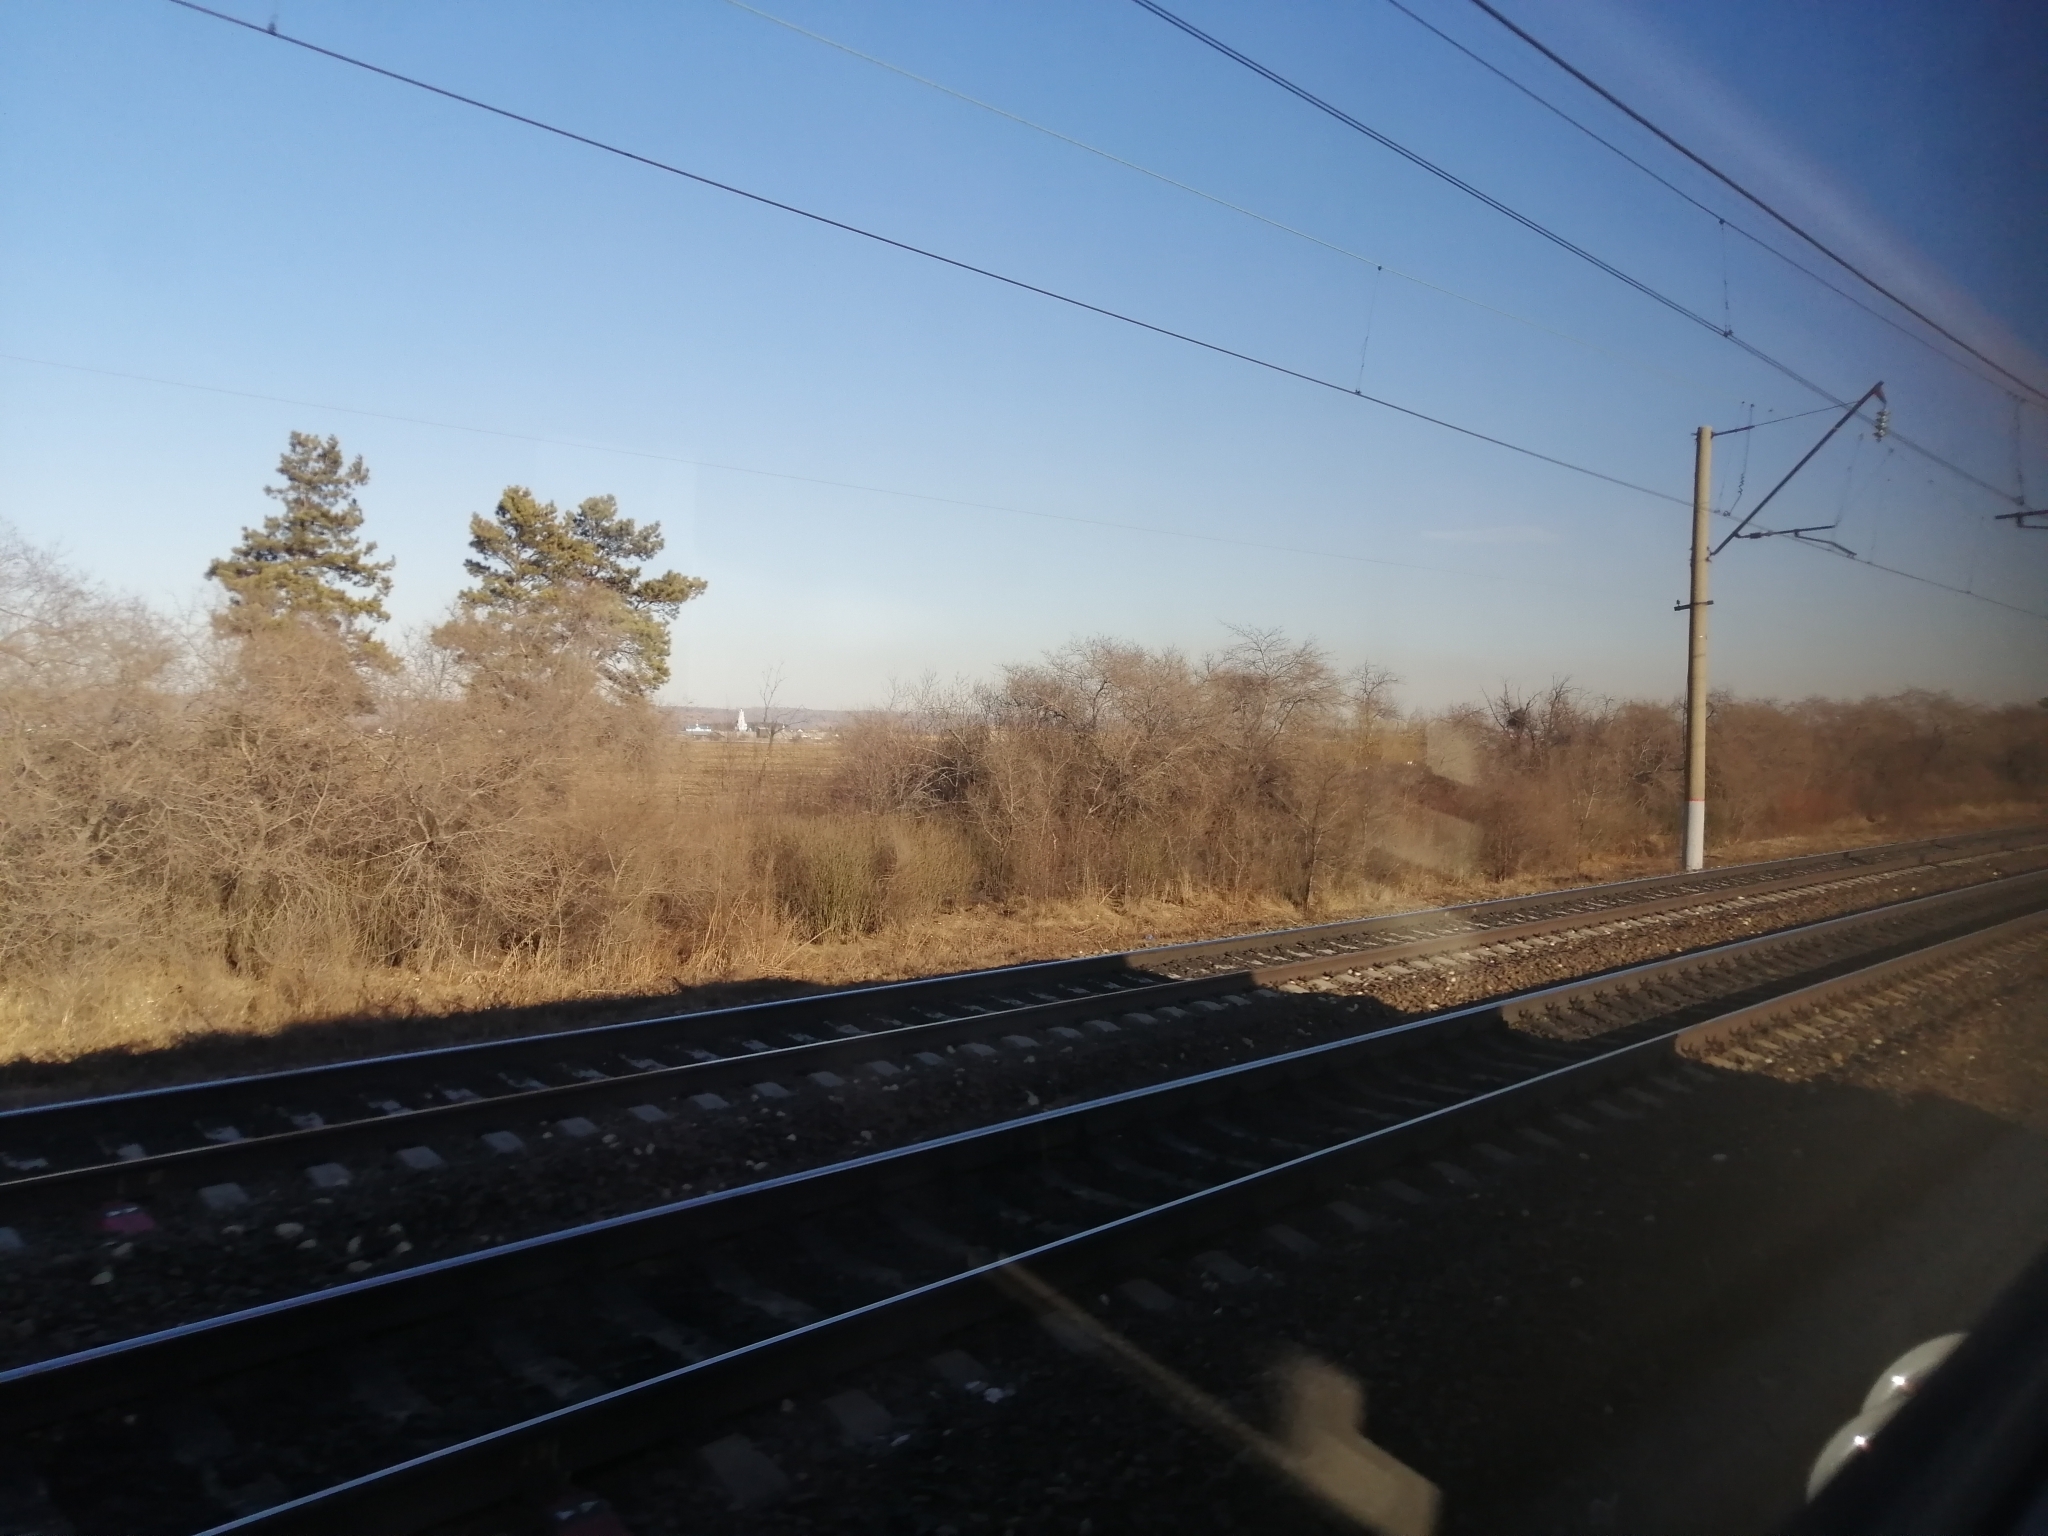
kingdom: Plantae
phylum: Tracheophyta
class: Pinopsida
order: Pinales
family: Pinaceae
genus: Pinus
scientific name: Pinus sylvestris
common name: Scots pine
